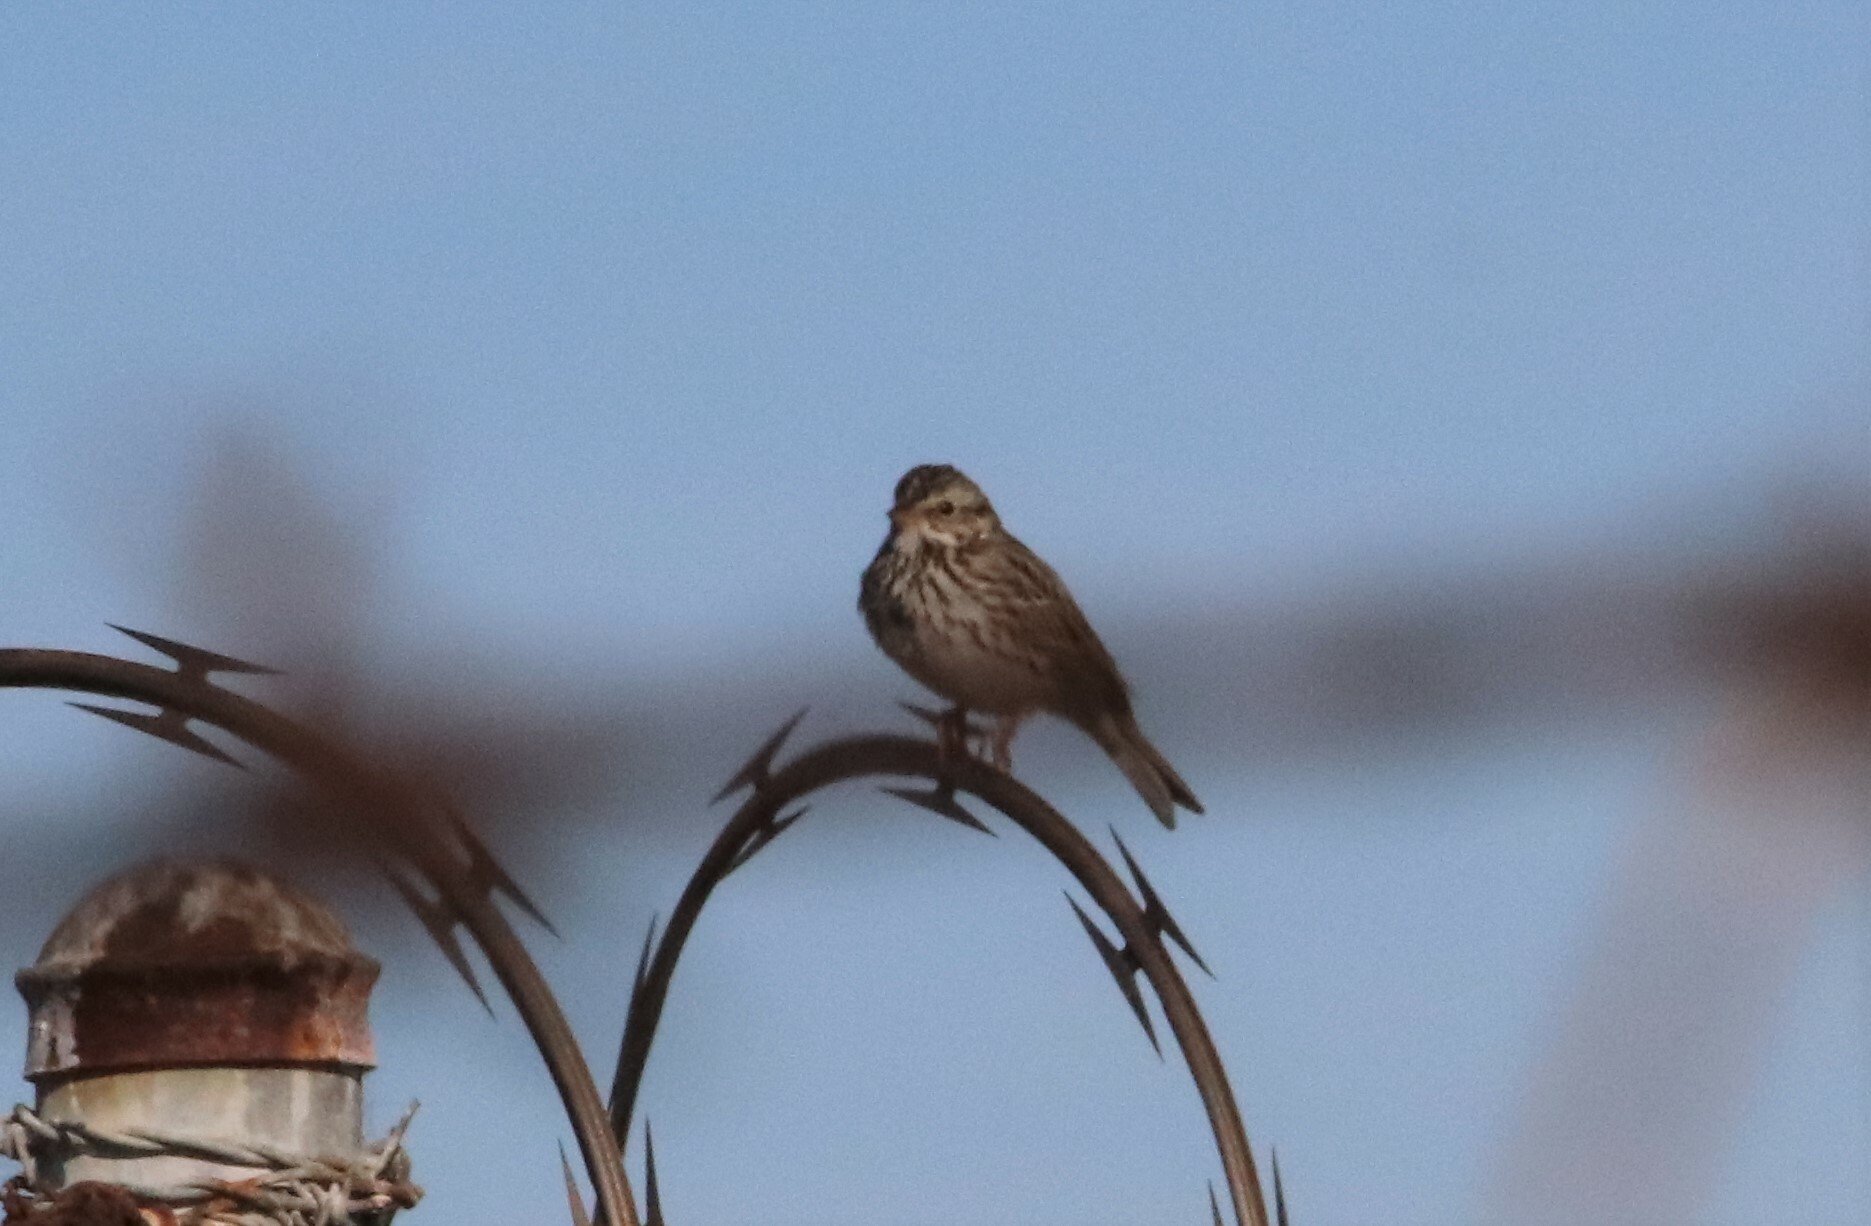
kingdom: Animalia
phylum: Chordata
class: Aves
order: Passeriformes
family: Passerellidae
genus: Passerculus
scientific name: Passerculus sandwichensis
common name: Savannah sparrow
